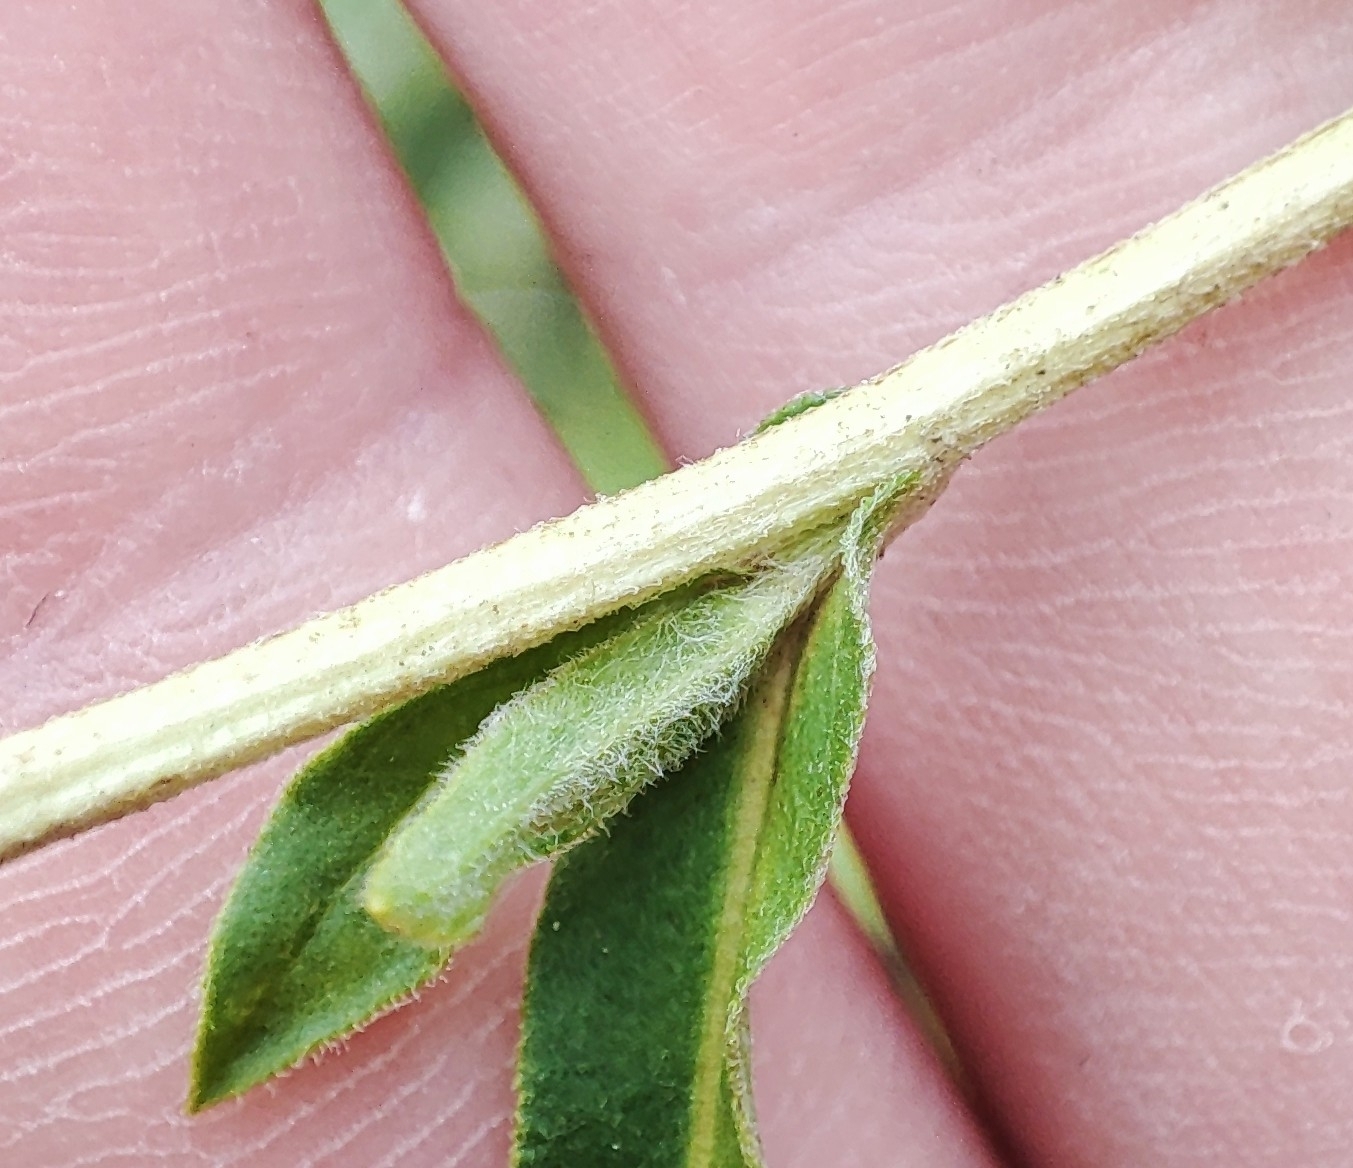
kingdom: Plantae
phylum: Tracheophyta
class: Magnoliopsida
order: Asterales
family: Asteraceae
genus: Pentanema
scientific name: Pentanema britannicum
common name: British elecampane
